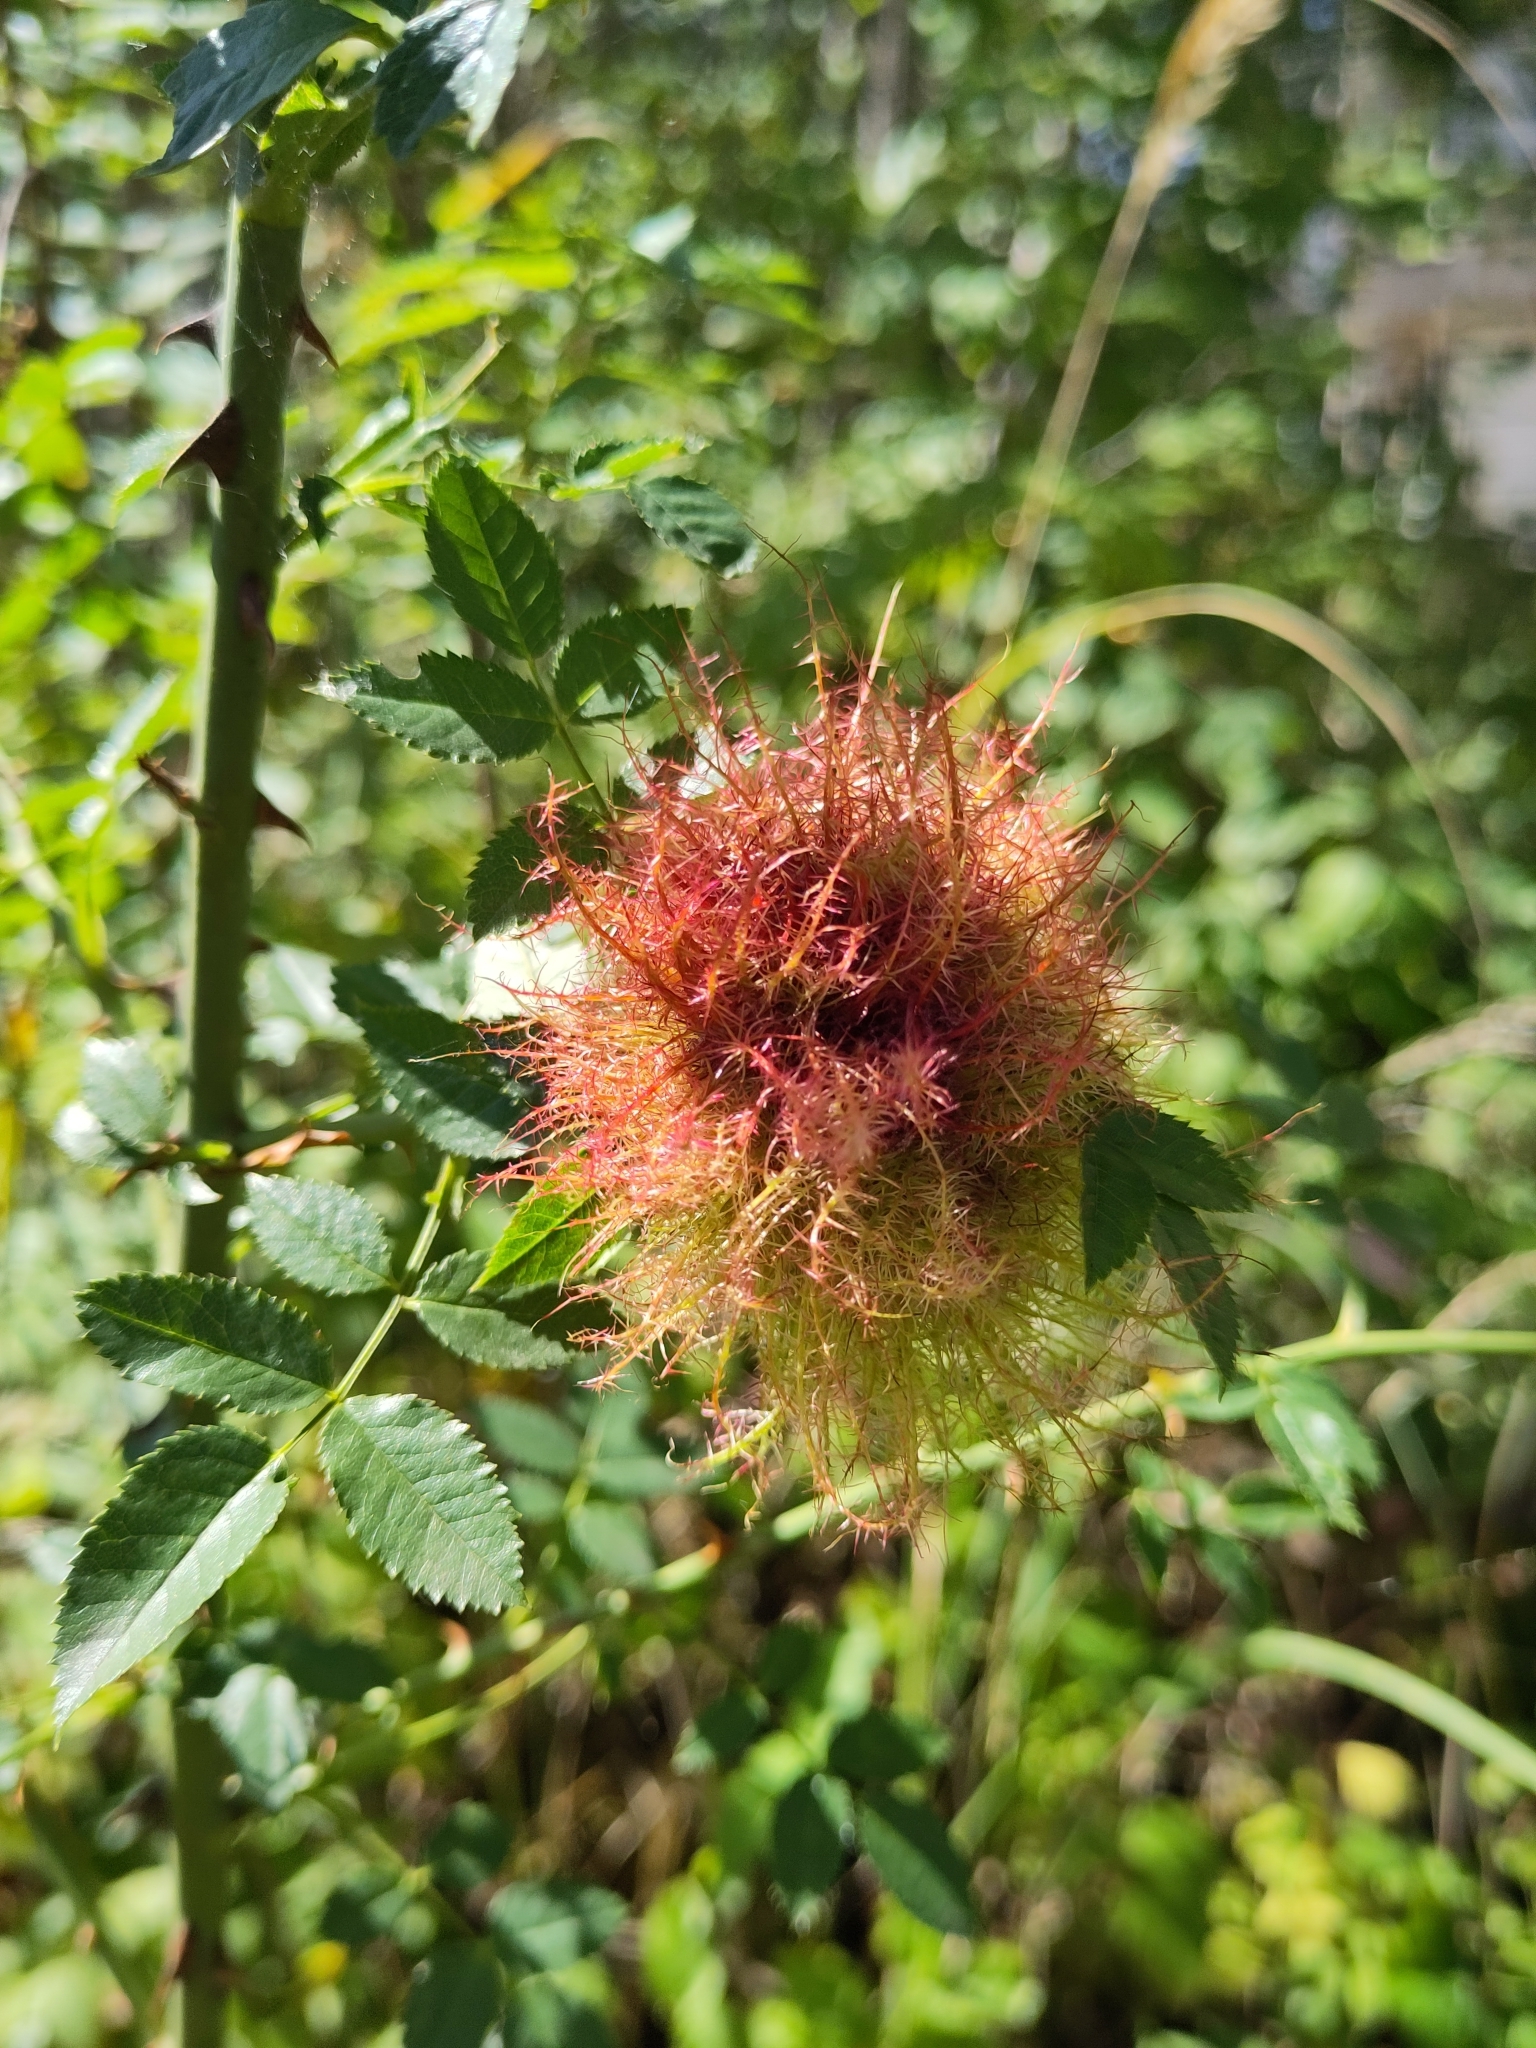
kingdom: Animalia
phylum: Arthropoda
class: Insecta
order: Hymenoptera
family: Cynipidae
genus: Diplolepis
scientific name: Diplolepis rosae
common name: Bedeguar gall
